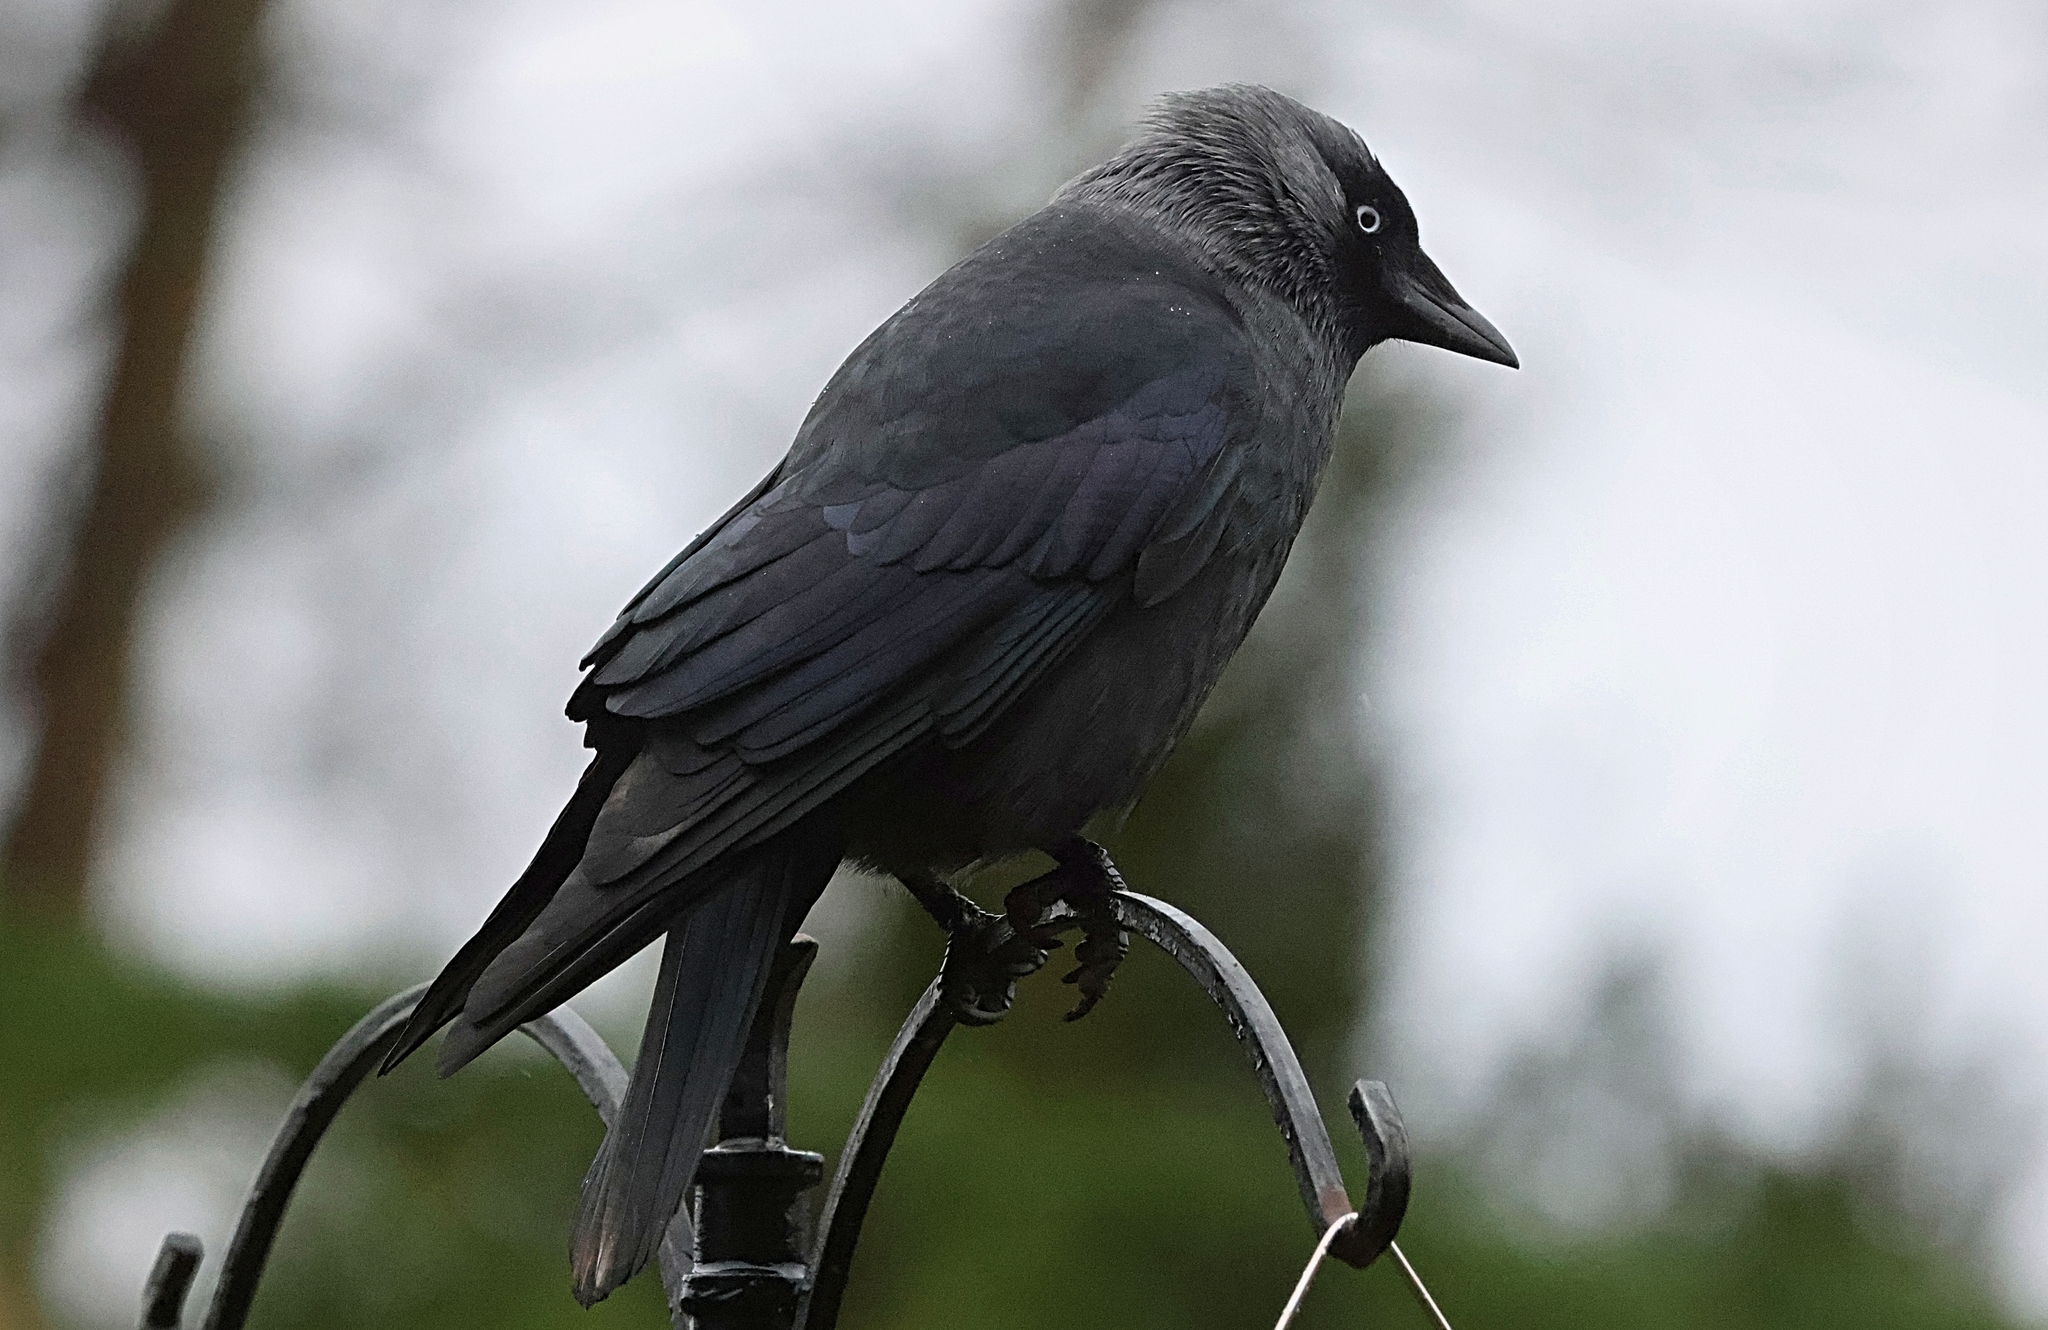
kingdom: Animalia
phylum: Chordata
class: Aves
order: Passeriformes
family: Corvidae
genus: Coloeus
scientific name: Coloeus monedula
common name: Western jackdaw
